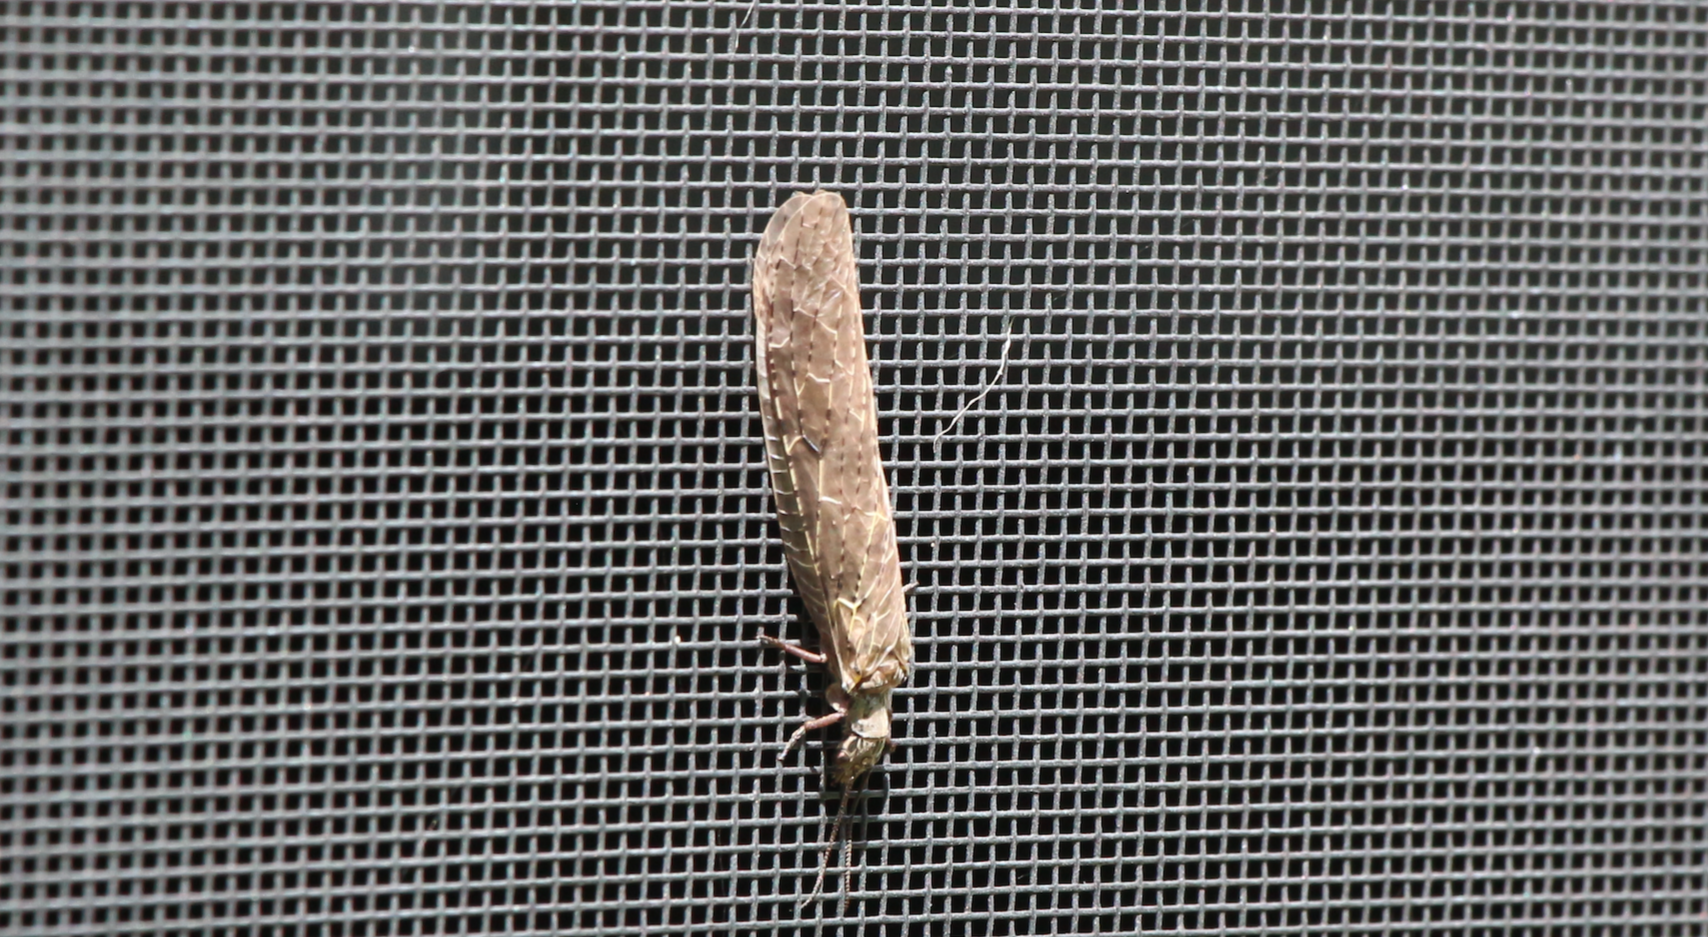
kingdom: Animalia
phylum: Arthropoda
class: Insecta
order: Megaloptera
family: Corydalidae
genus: Chauliodes
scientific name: Chauliodes rastricornis
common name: Spring fishfly
